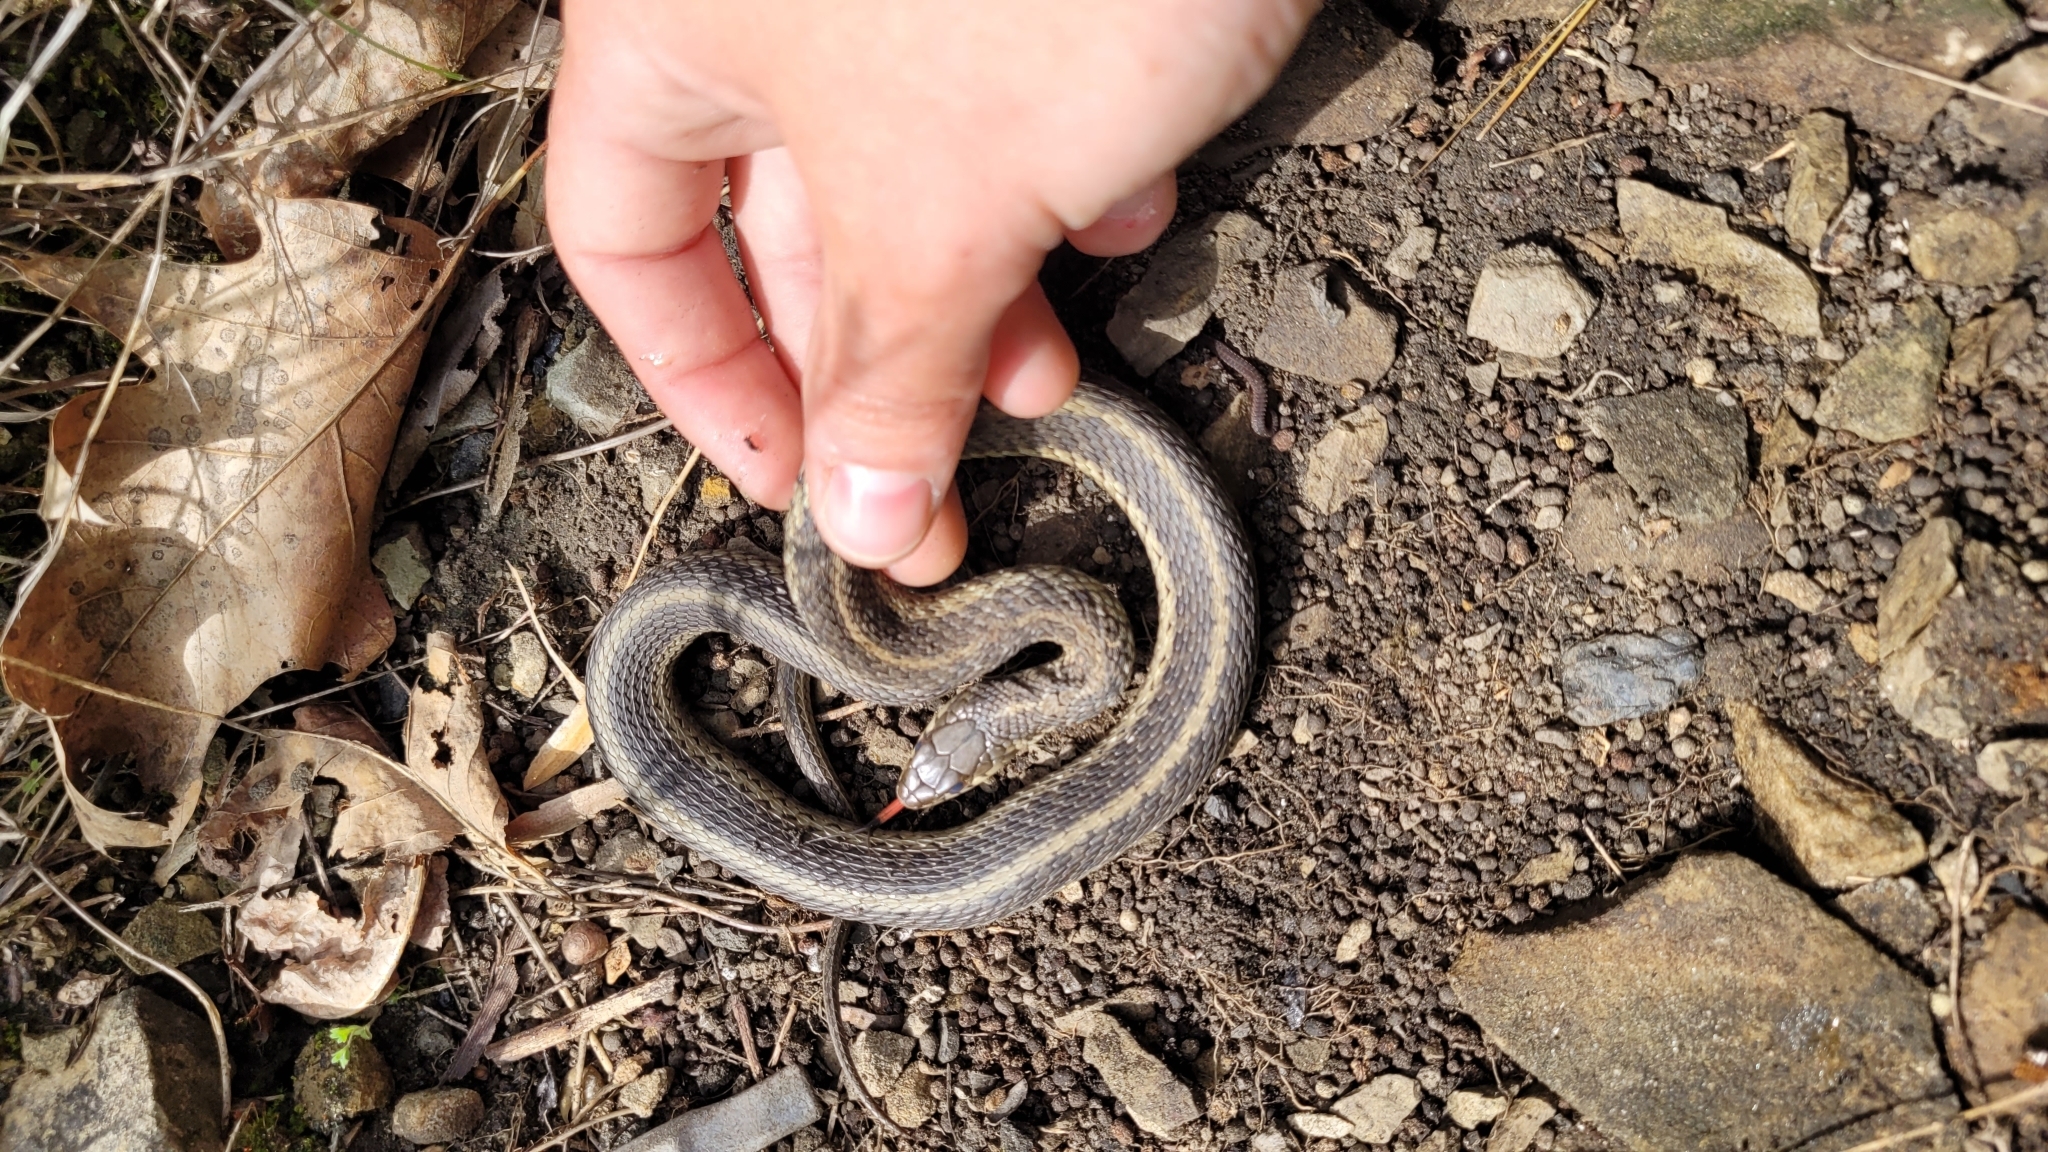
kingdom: Animalia
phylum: Chordata
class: Squamata
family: Colubridae
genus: Thamnophis
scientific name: Thamnophis sirtalis
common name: Common garter snake
